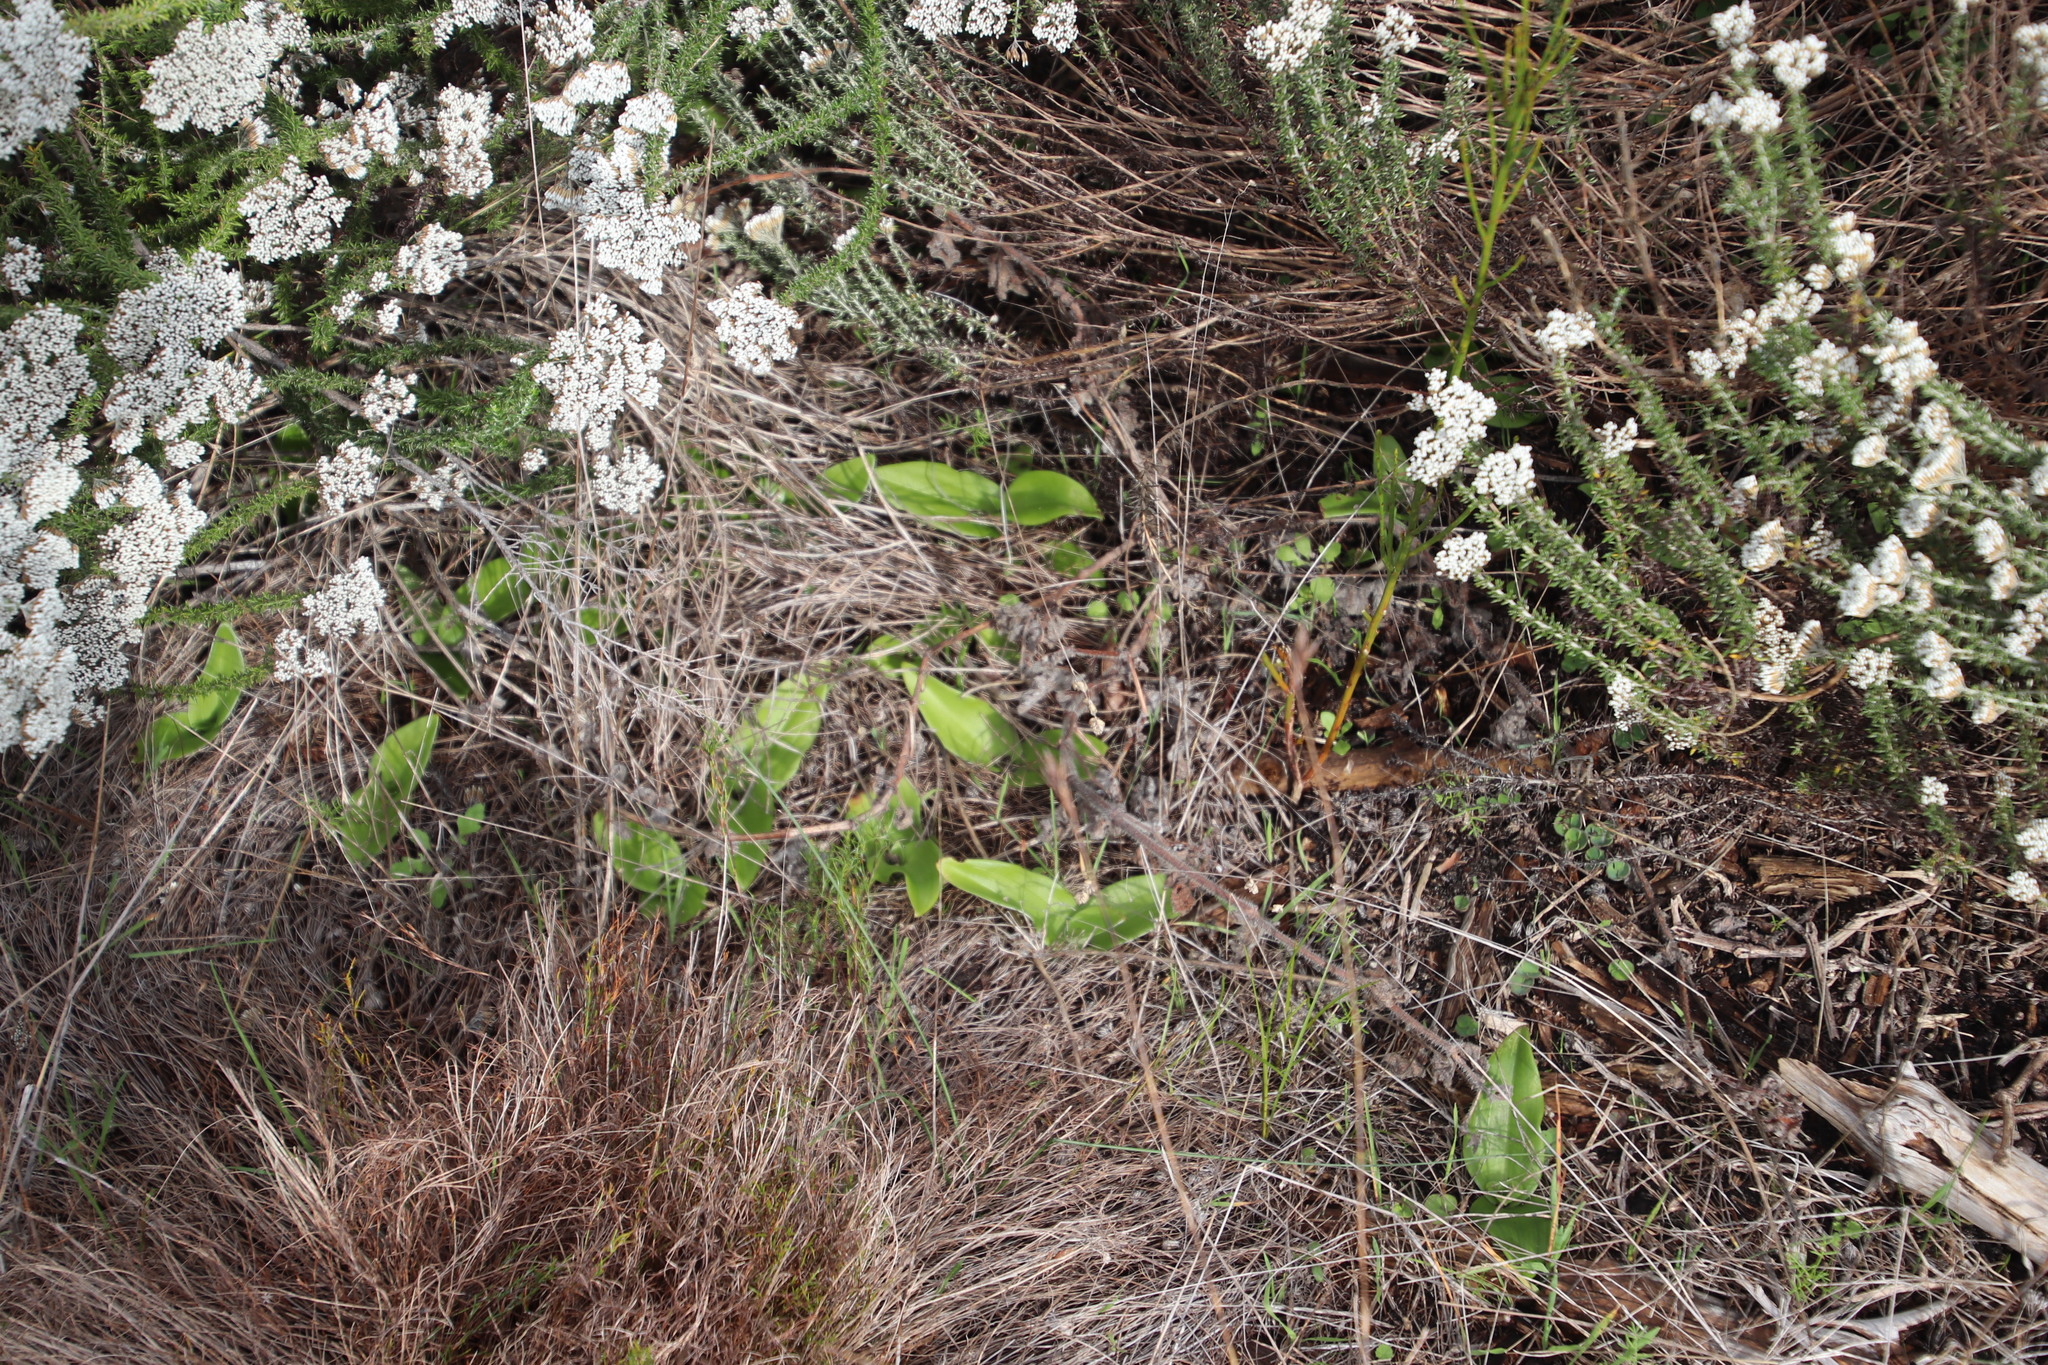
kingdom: Plantae
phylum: Tracheophyta
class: Liliopsida
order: Asparagales
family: Orchidaceae
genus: Satyrium
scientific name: Satyrium odorum
